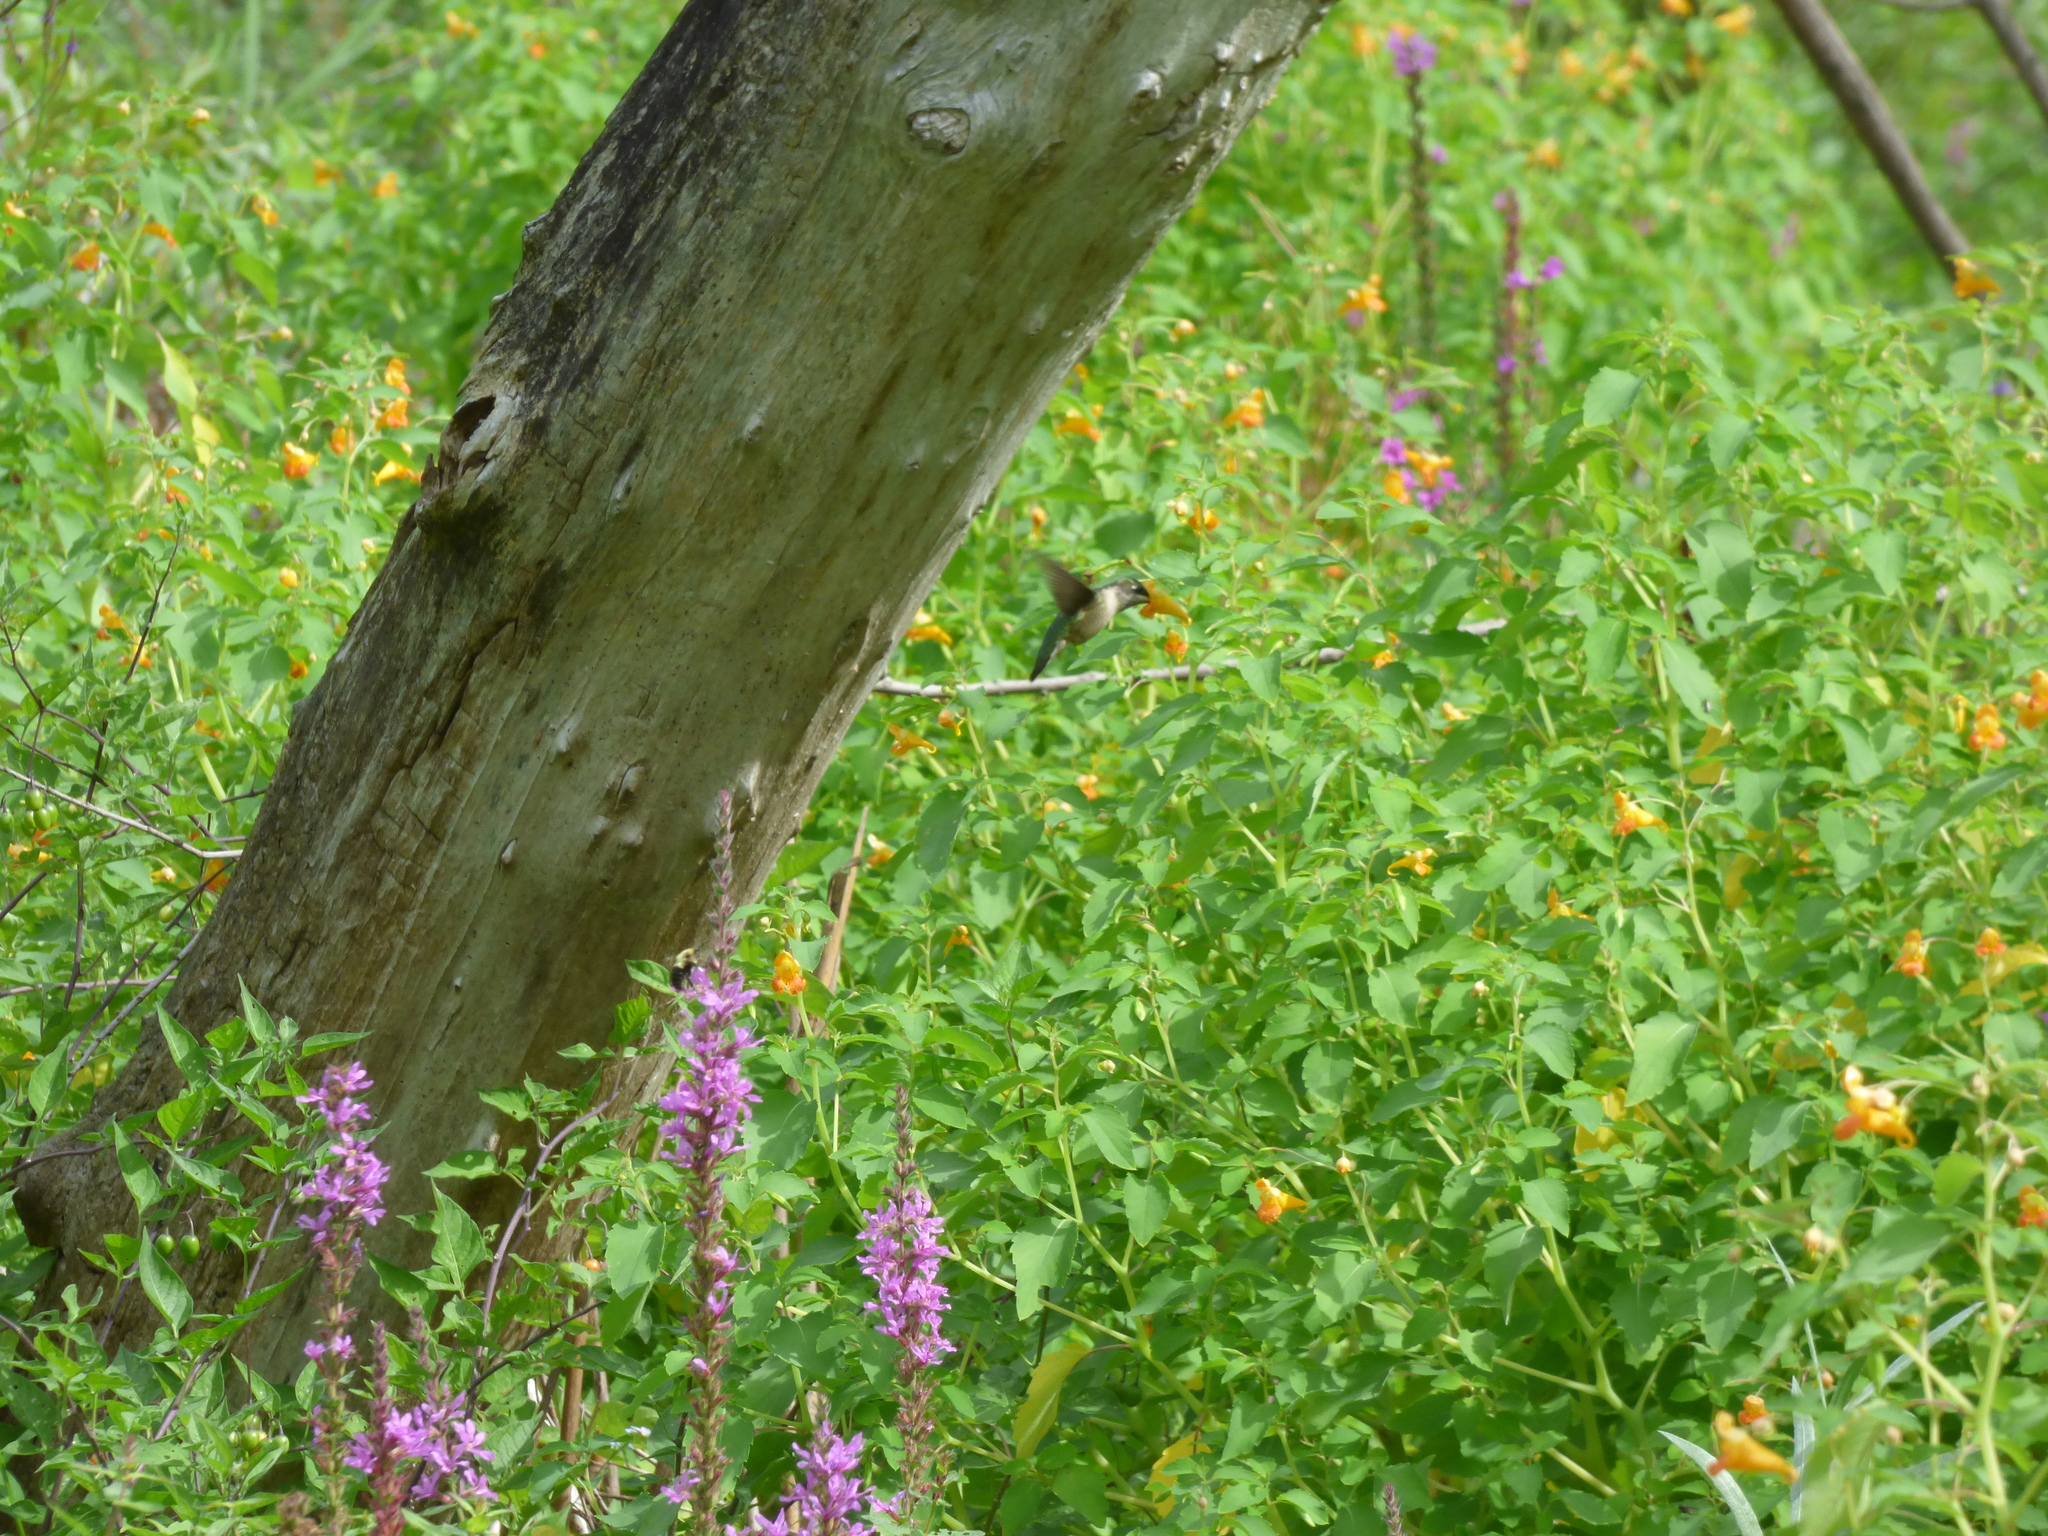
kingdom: Animalia
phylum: Chordata
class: Aves
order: Apodiformes
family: Trochilidae
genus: Archilochus
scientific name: Archilochus colubris
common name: Ruby-throated hummingbird
